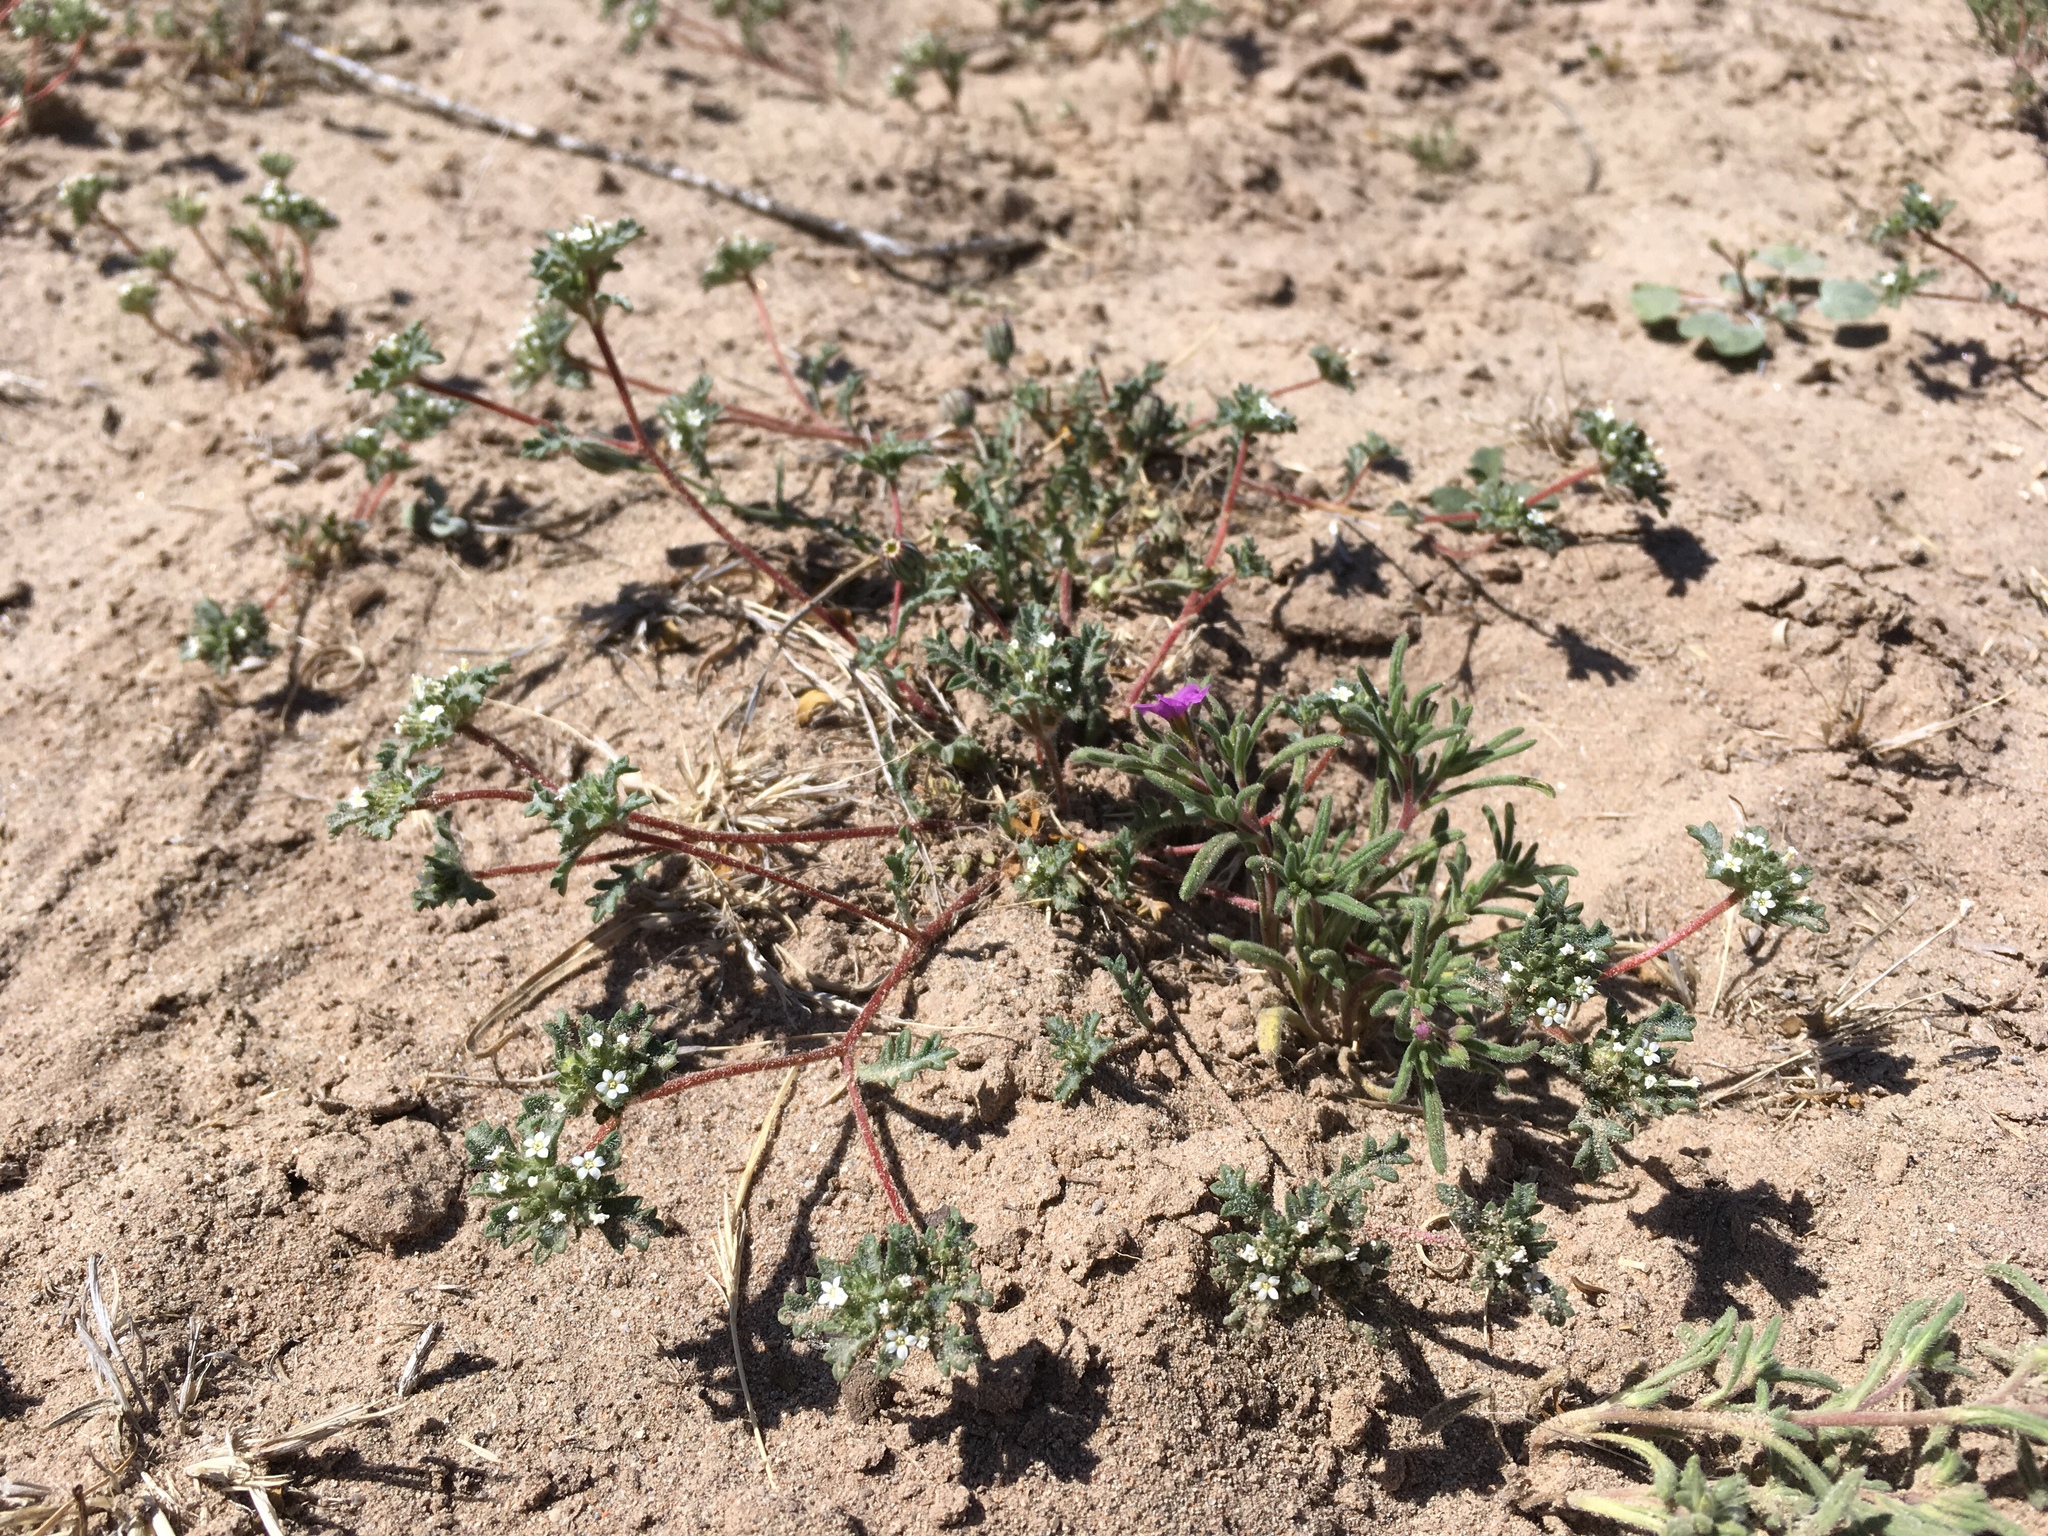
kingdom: Plantae
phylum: Tracheophyta
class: Magnoliopsida
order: Ericales
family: Polemoniaceae
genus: Ipomopsis
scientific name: Ipomopsis polycladon
